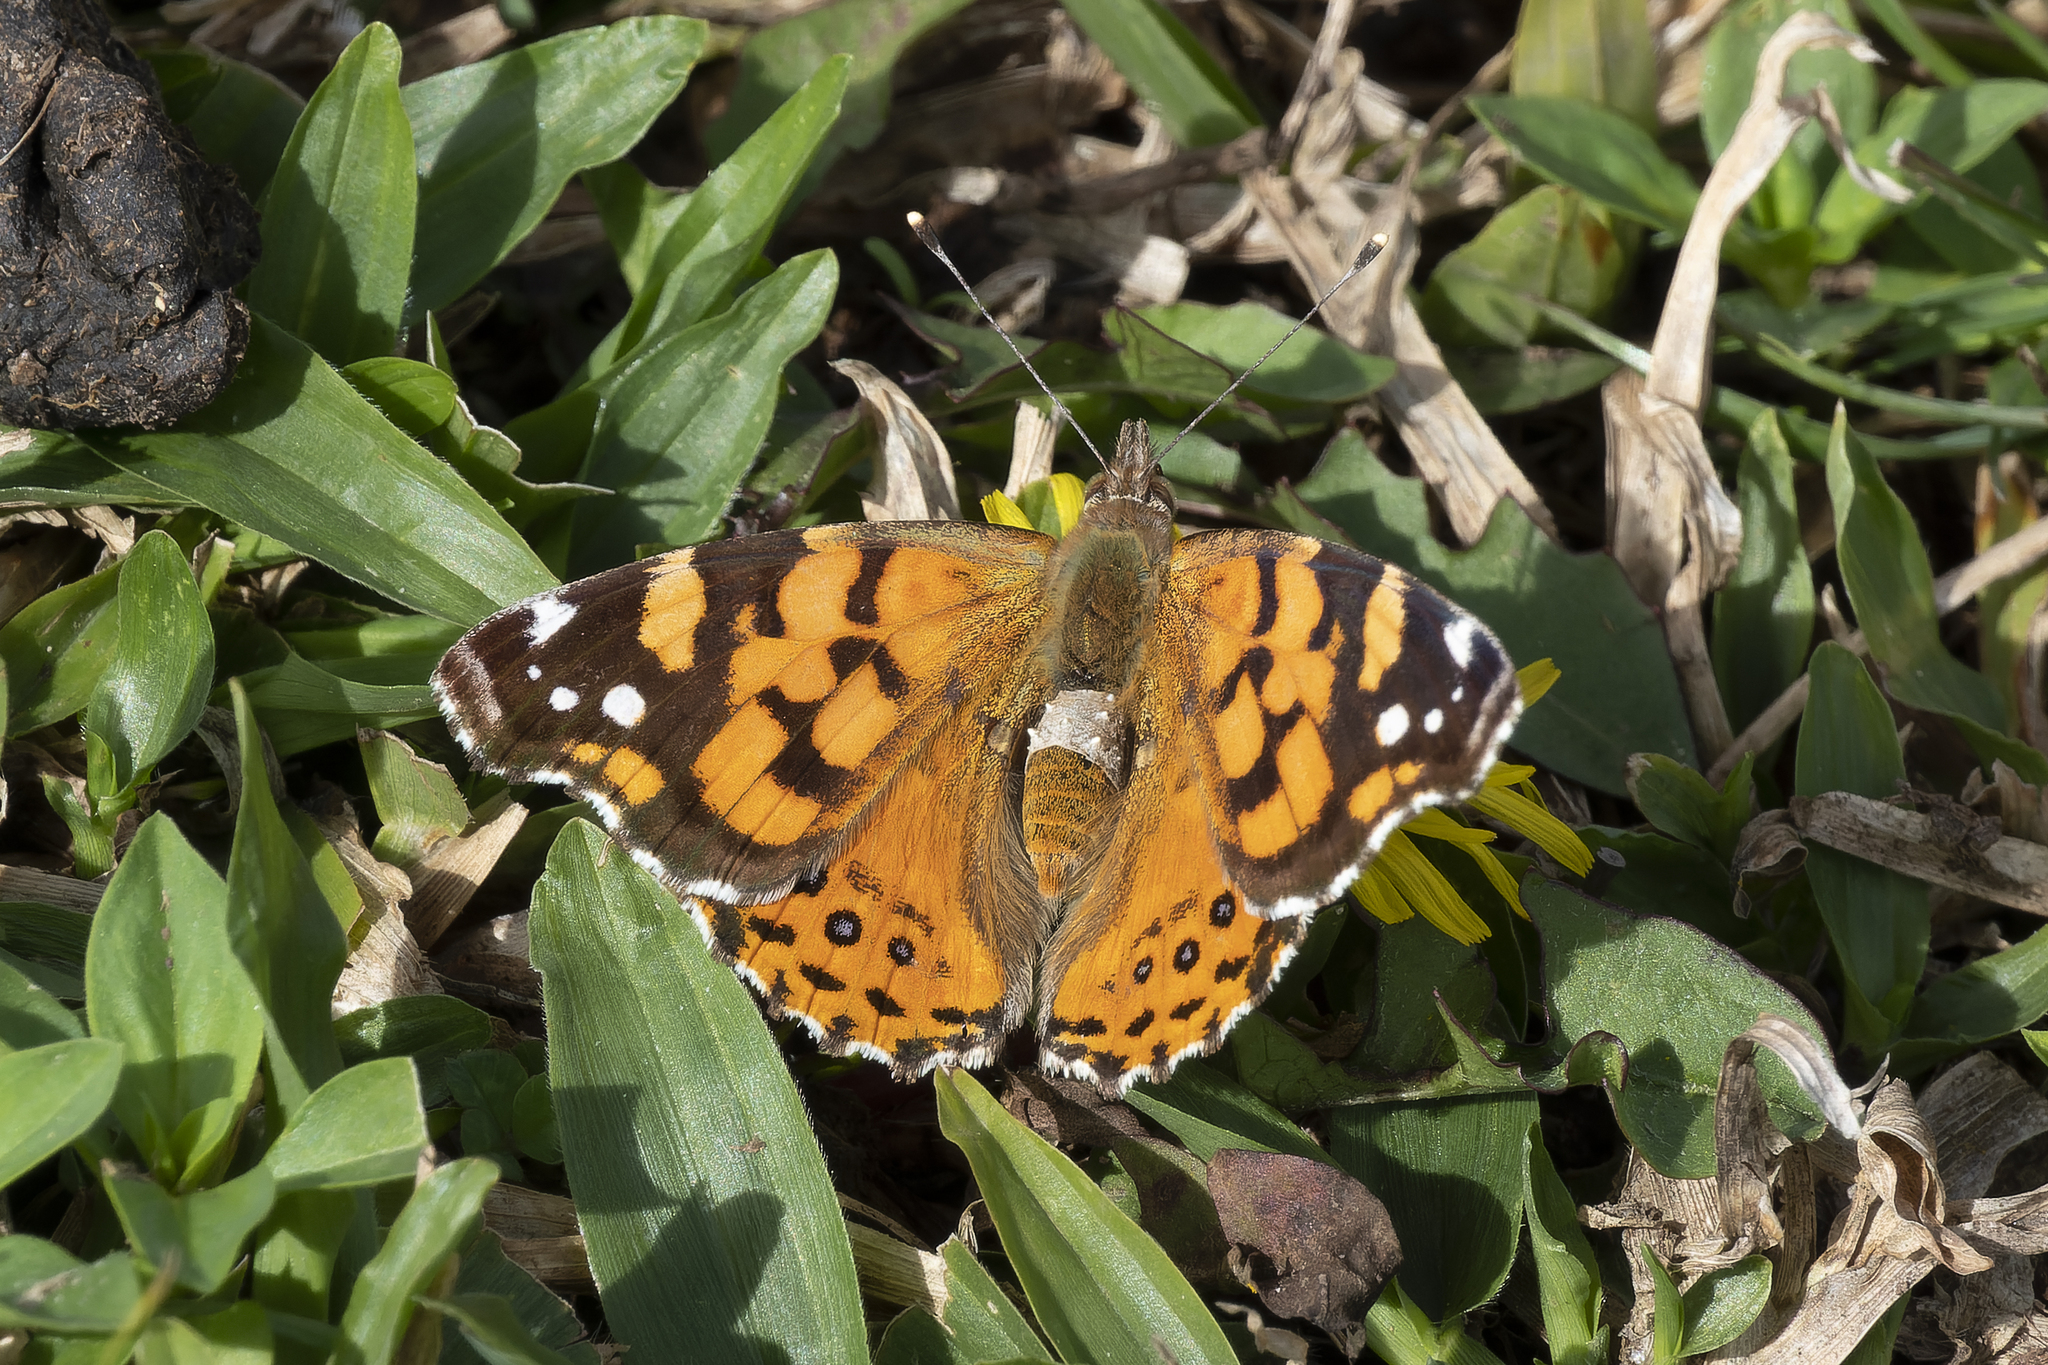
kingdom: Animalia
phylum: Arthropoda
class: Insecta
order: Lepidoptera
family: Nymphalidae
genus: Vanessa
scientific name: Vanessa carye
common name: Subtropical lady
